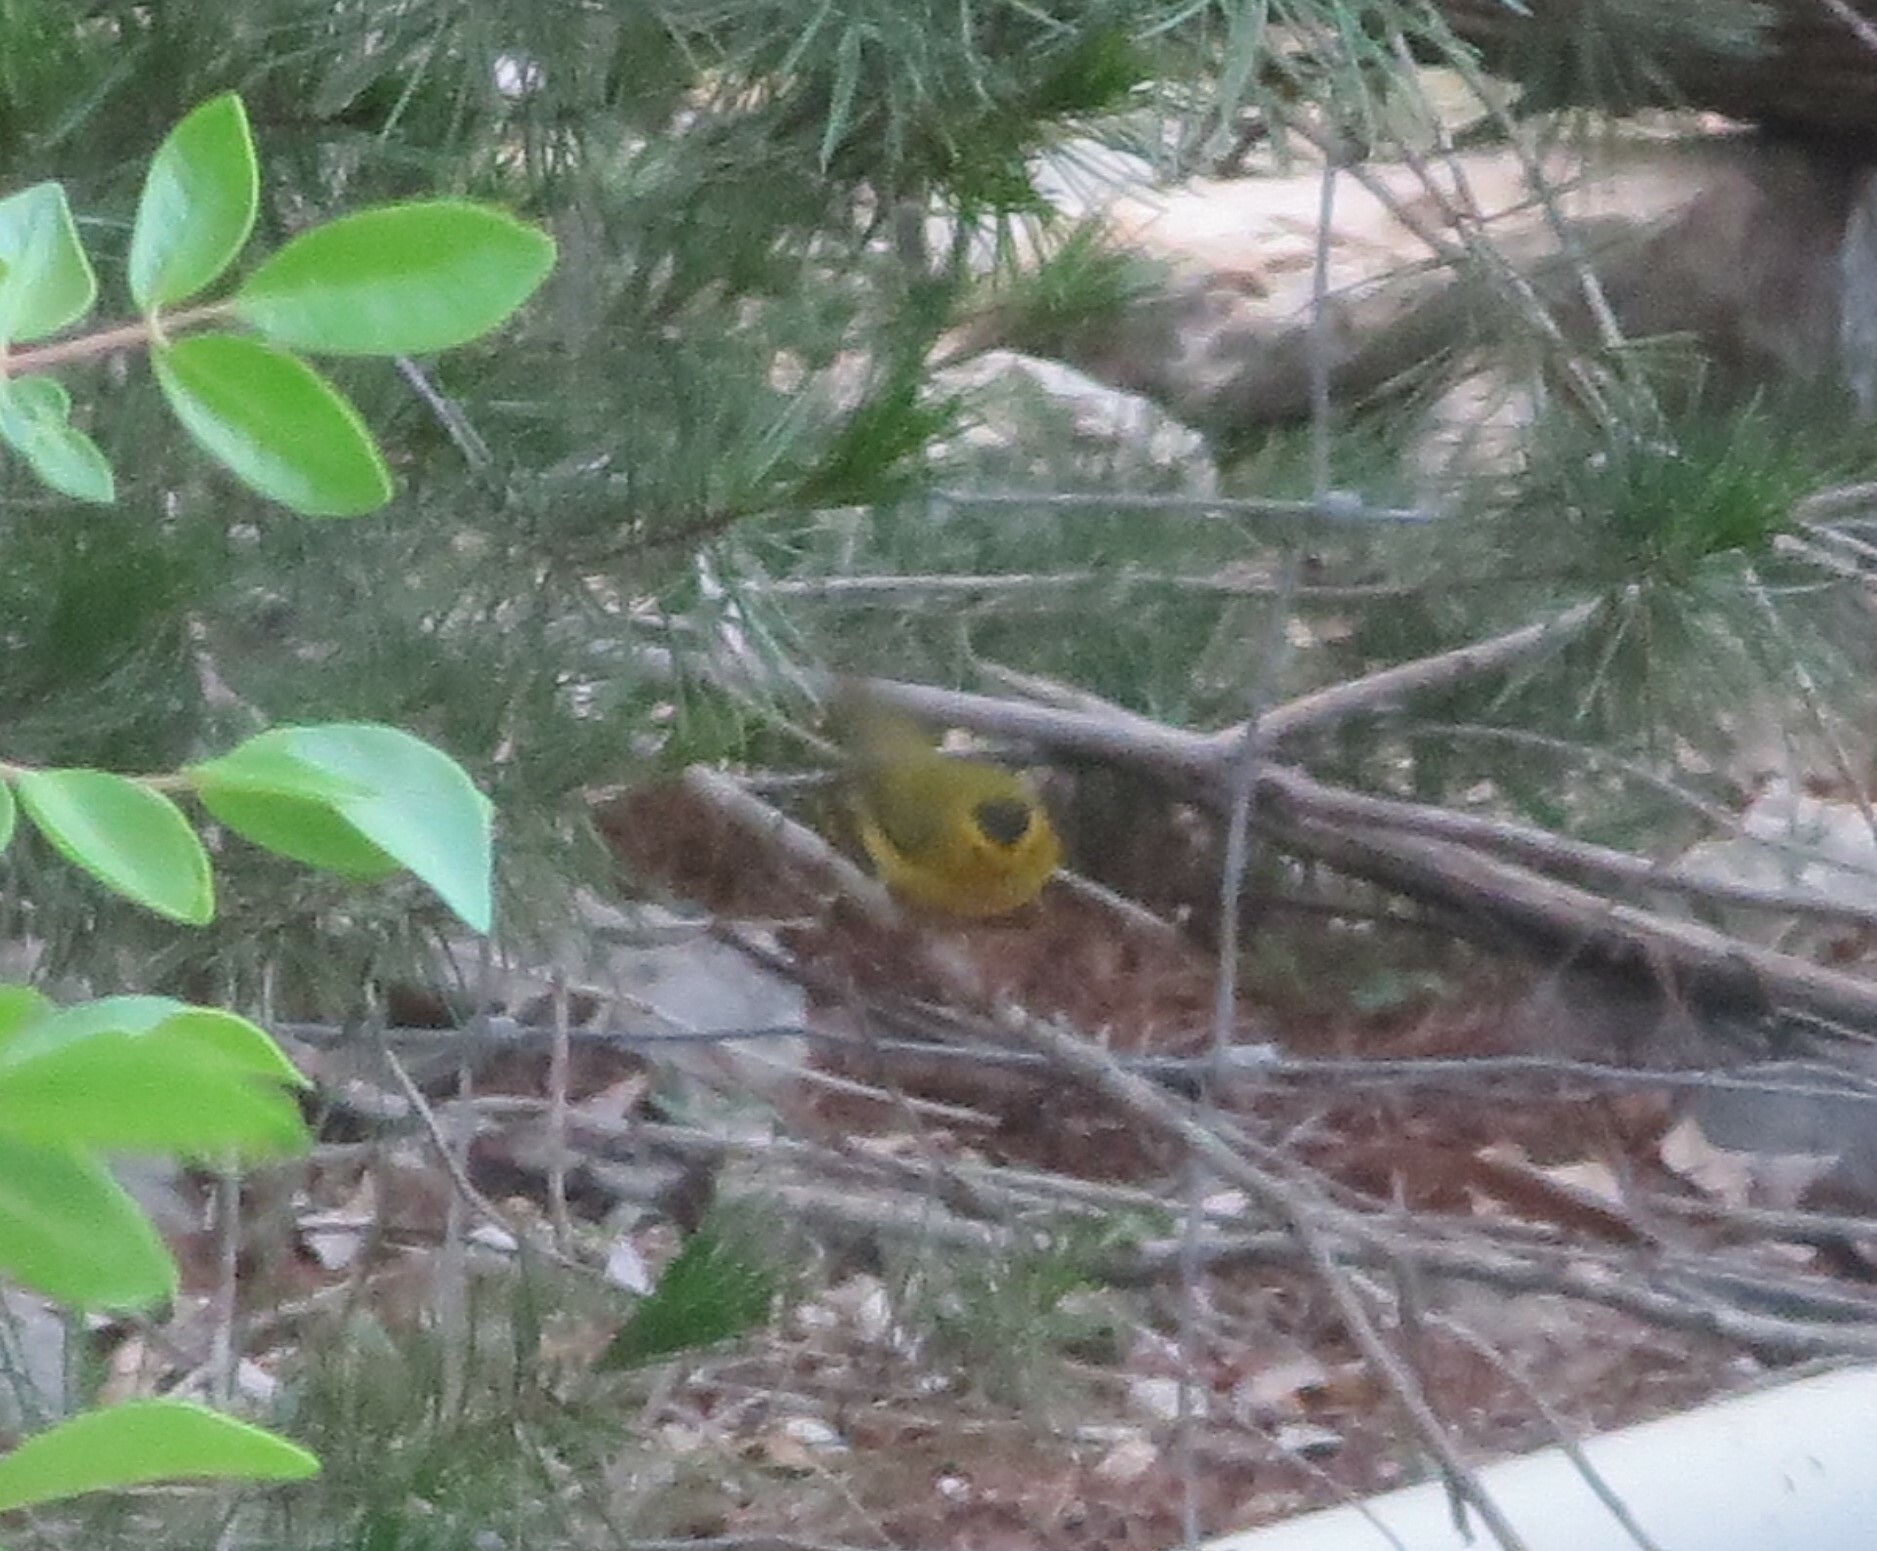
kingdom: Animalia
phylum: Chordata
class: Aves
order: Passeriformes
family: Parulidae
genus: Cardellina
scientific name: Cardellina pusilla
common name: Wilson's warbler
